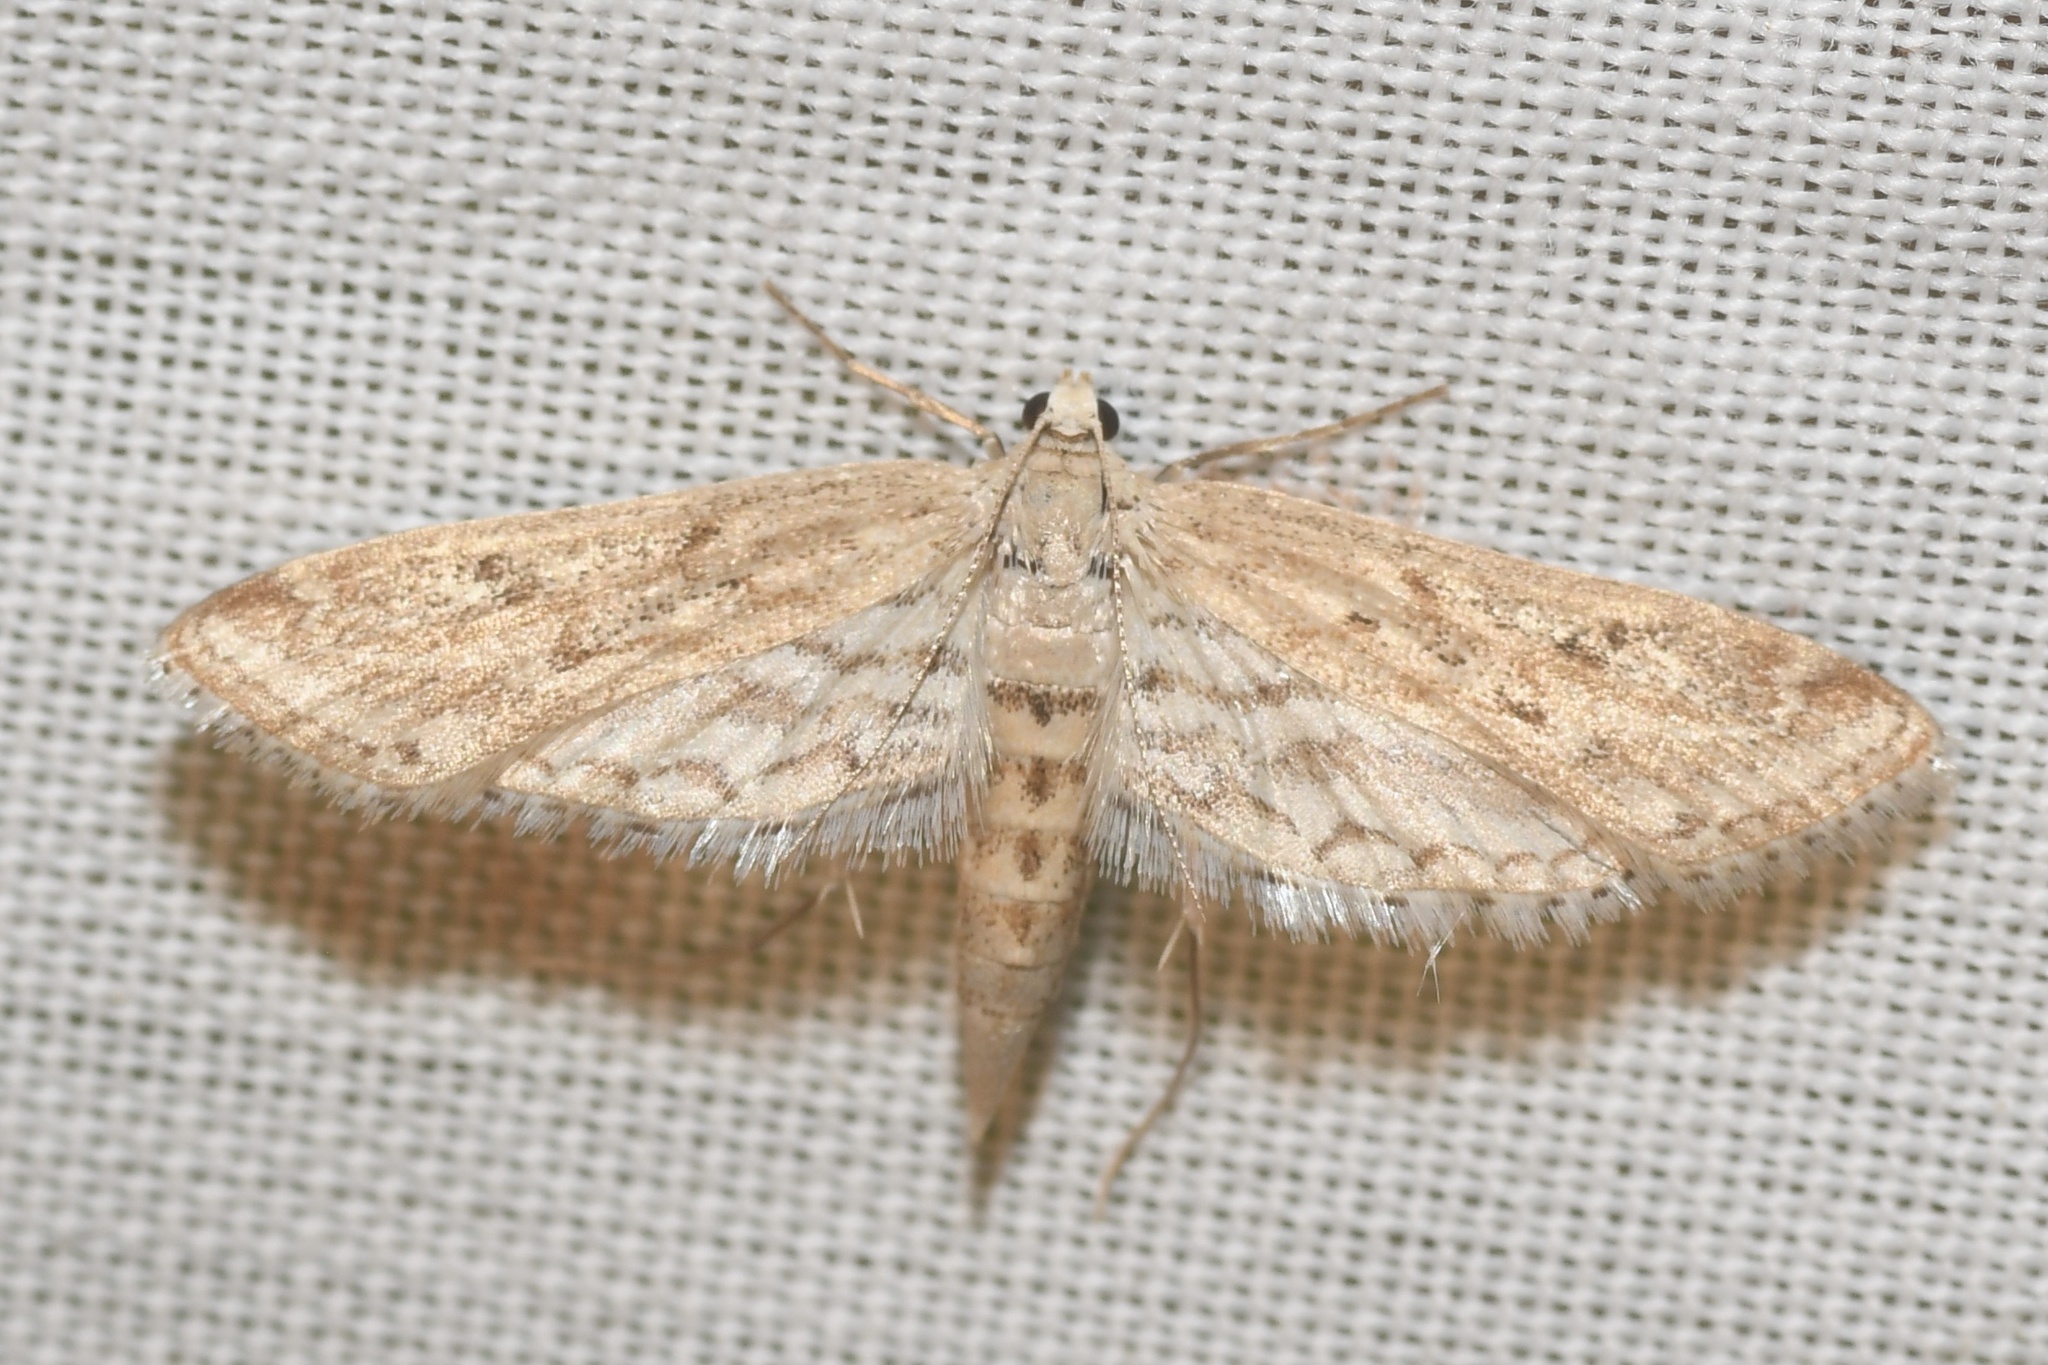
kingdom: Animalia
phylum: Arthropoda
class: Insecta
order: Lepidoptera
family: Crambidae
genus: Parapoynx
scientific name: Parapoynx allionealis
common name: Bladderwort casemaker
